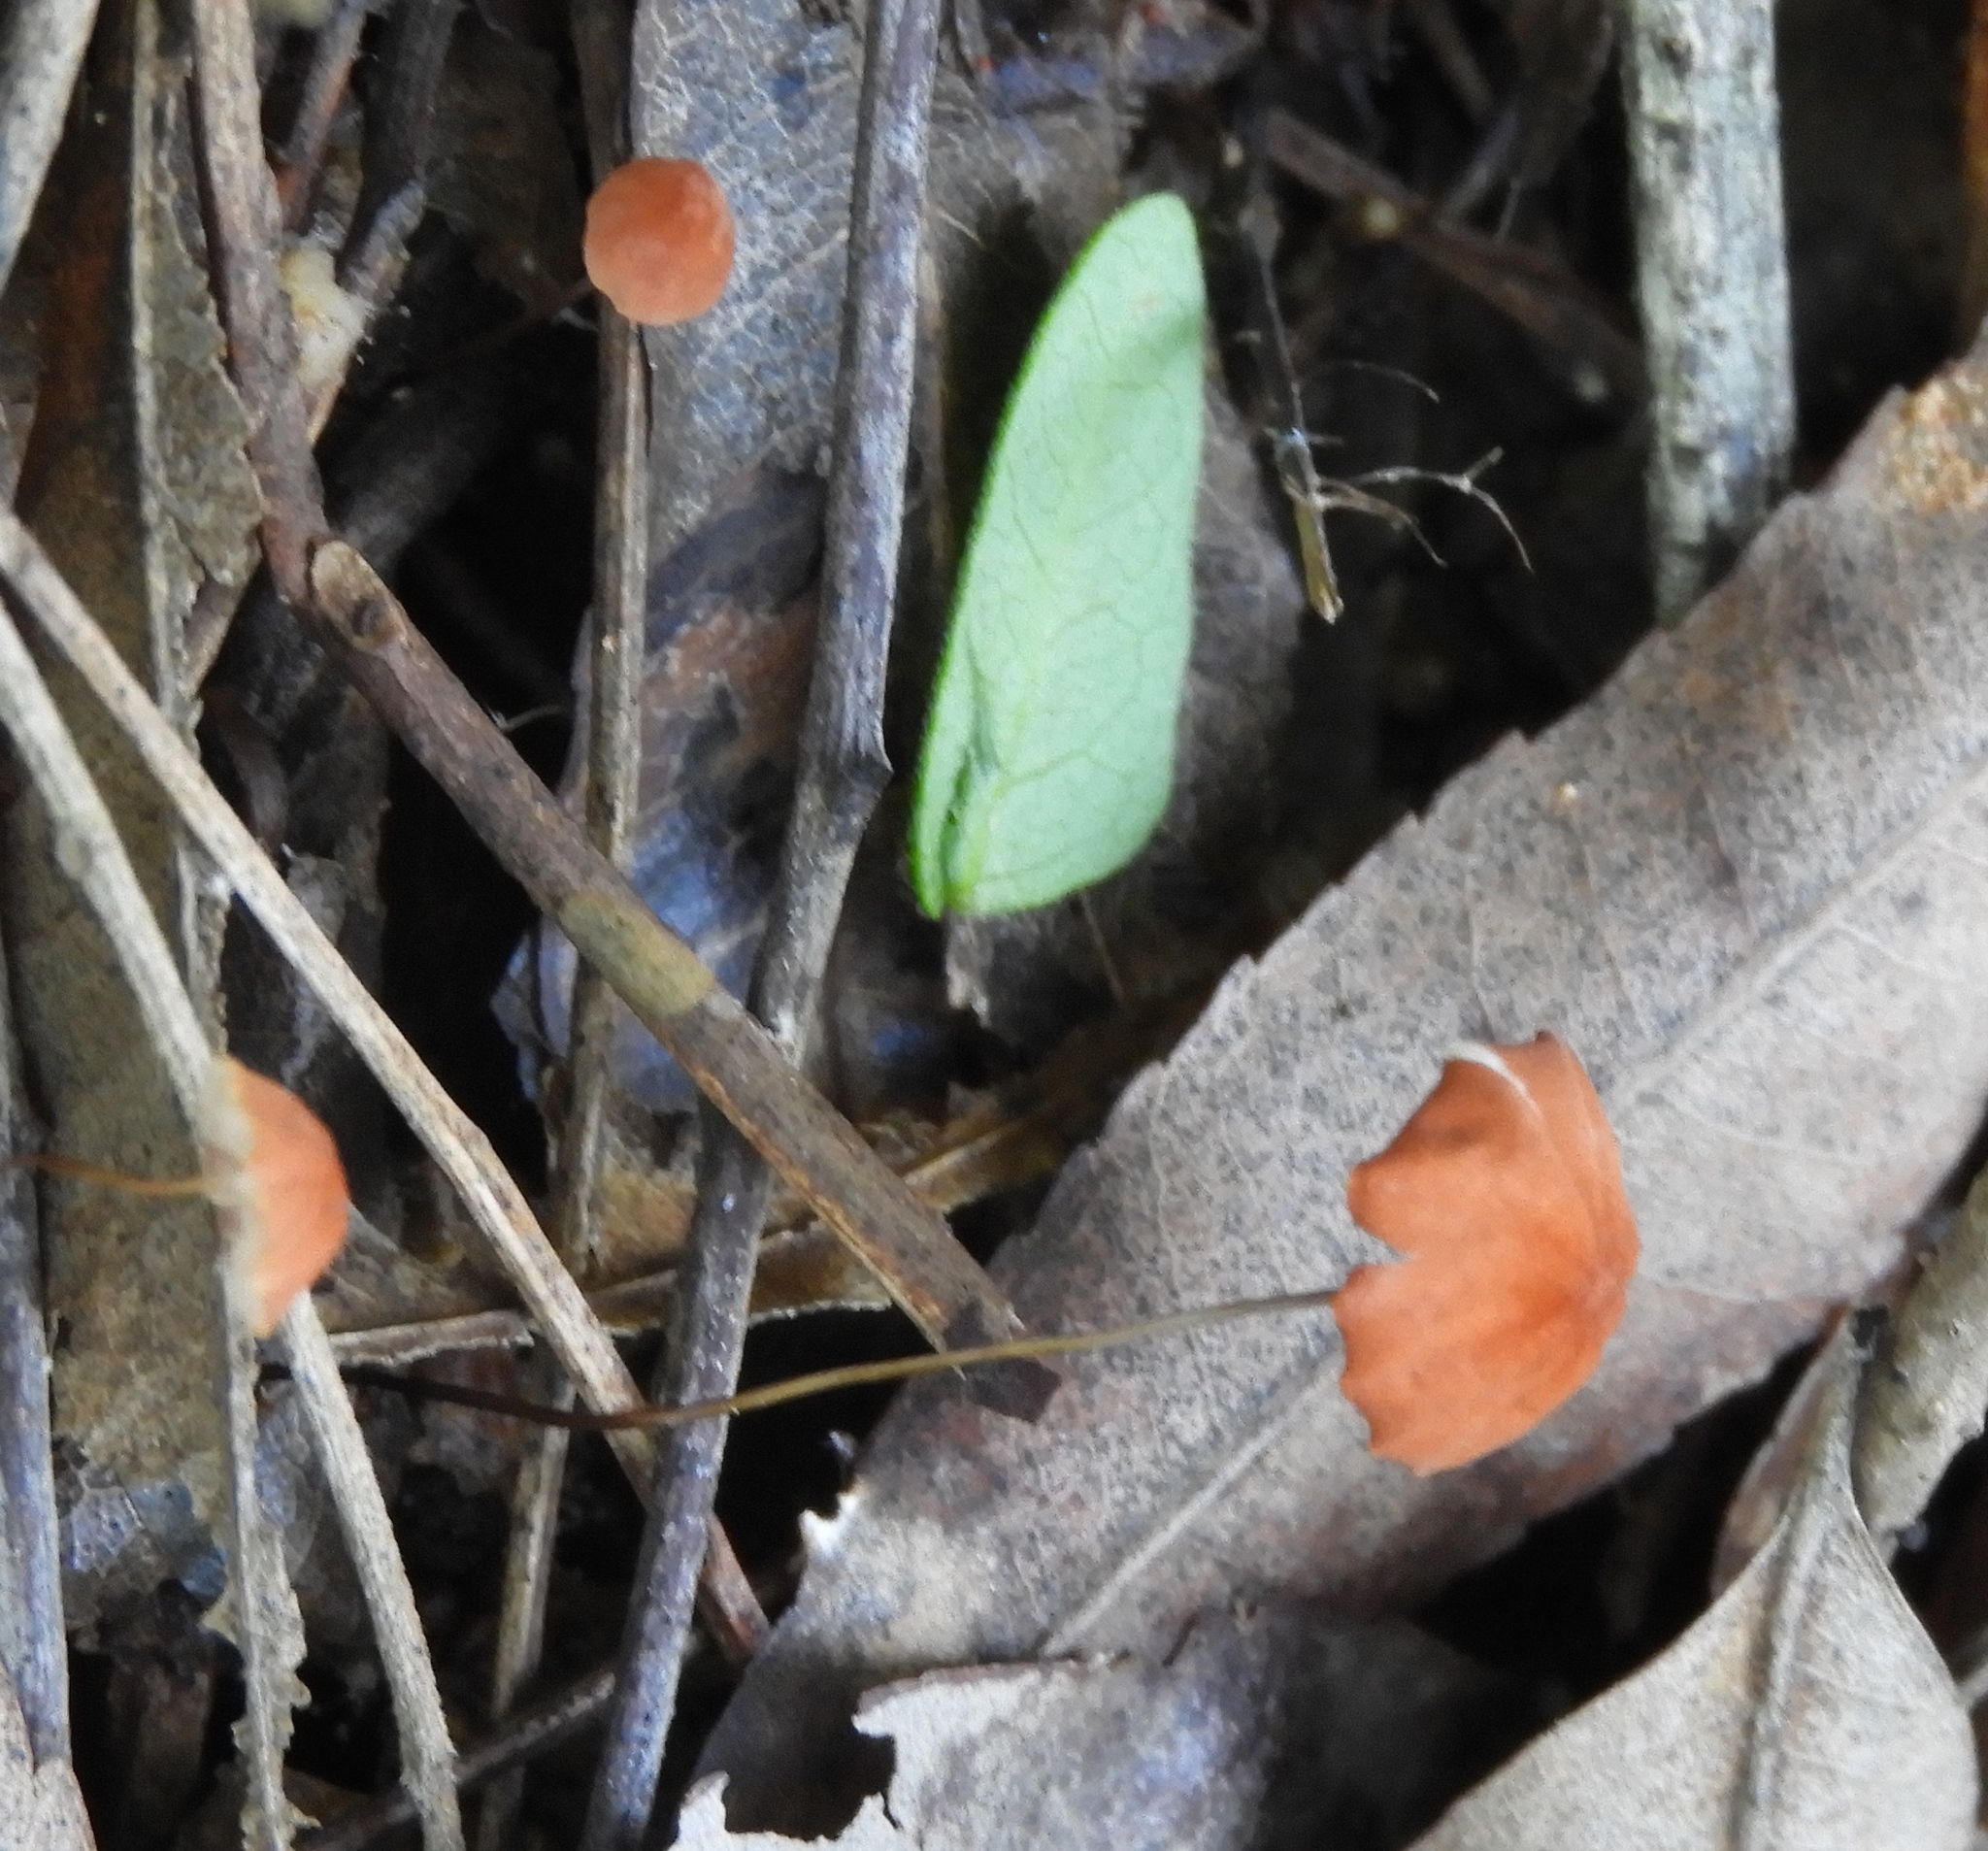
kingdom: Fungi
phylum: Basidiomycota
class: Agaricomycetes
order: Agaricales
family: Marasmiaceae
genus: Marasmius
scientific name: Marasmius
